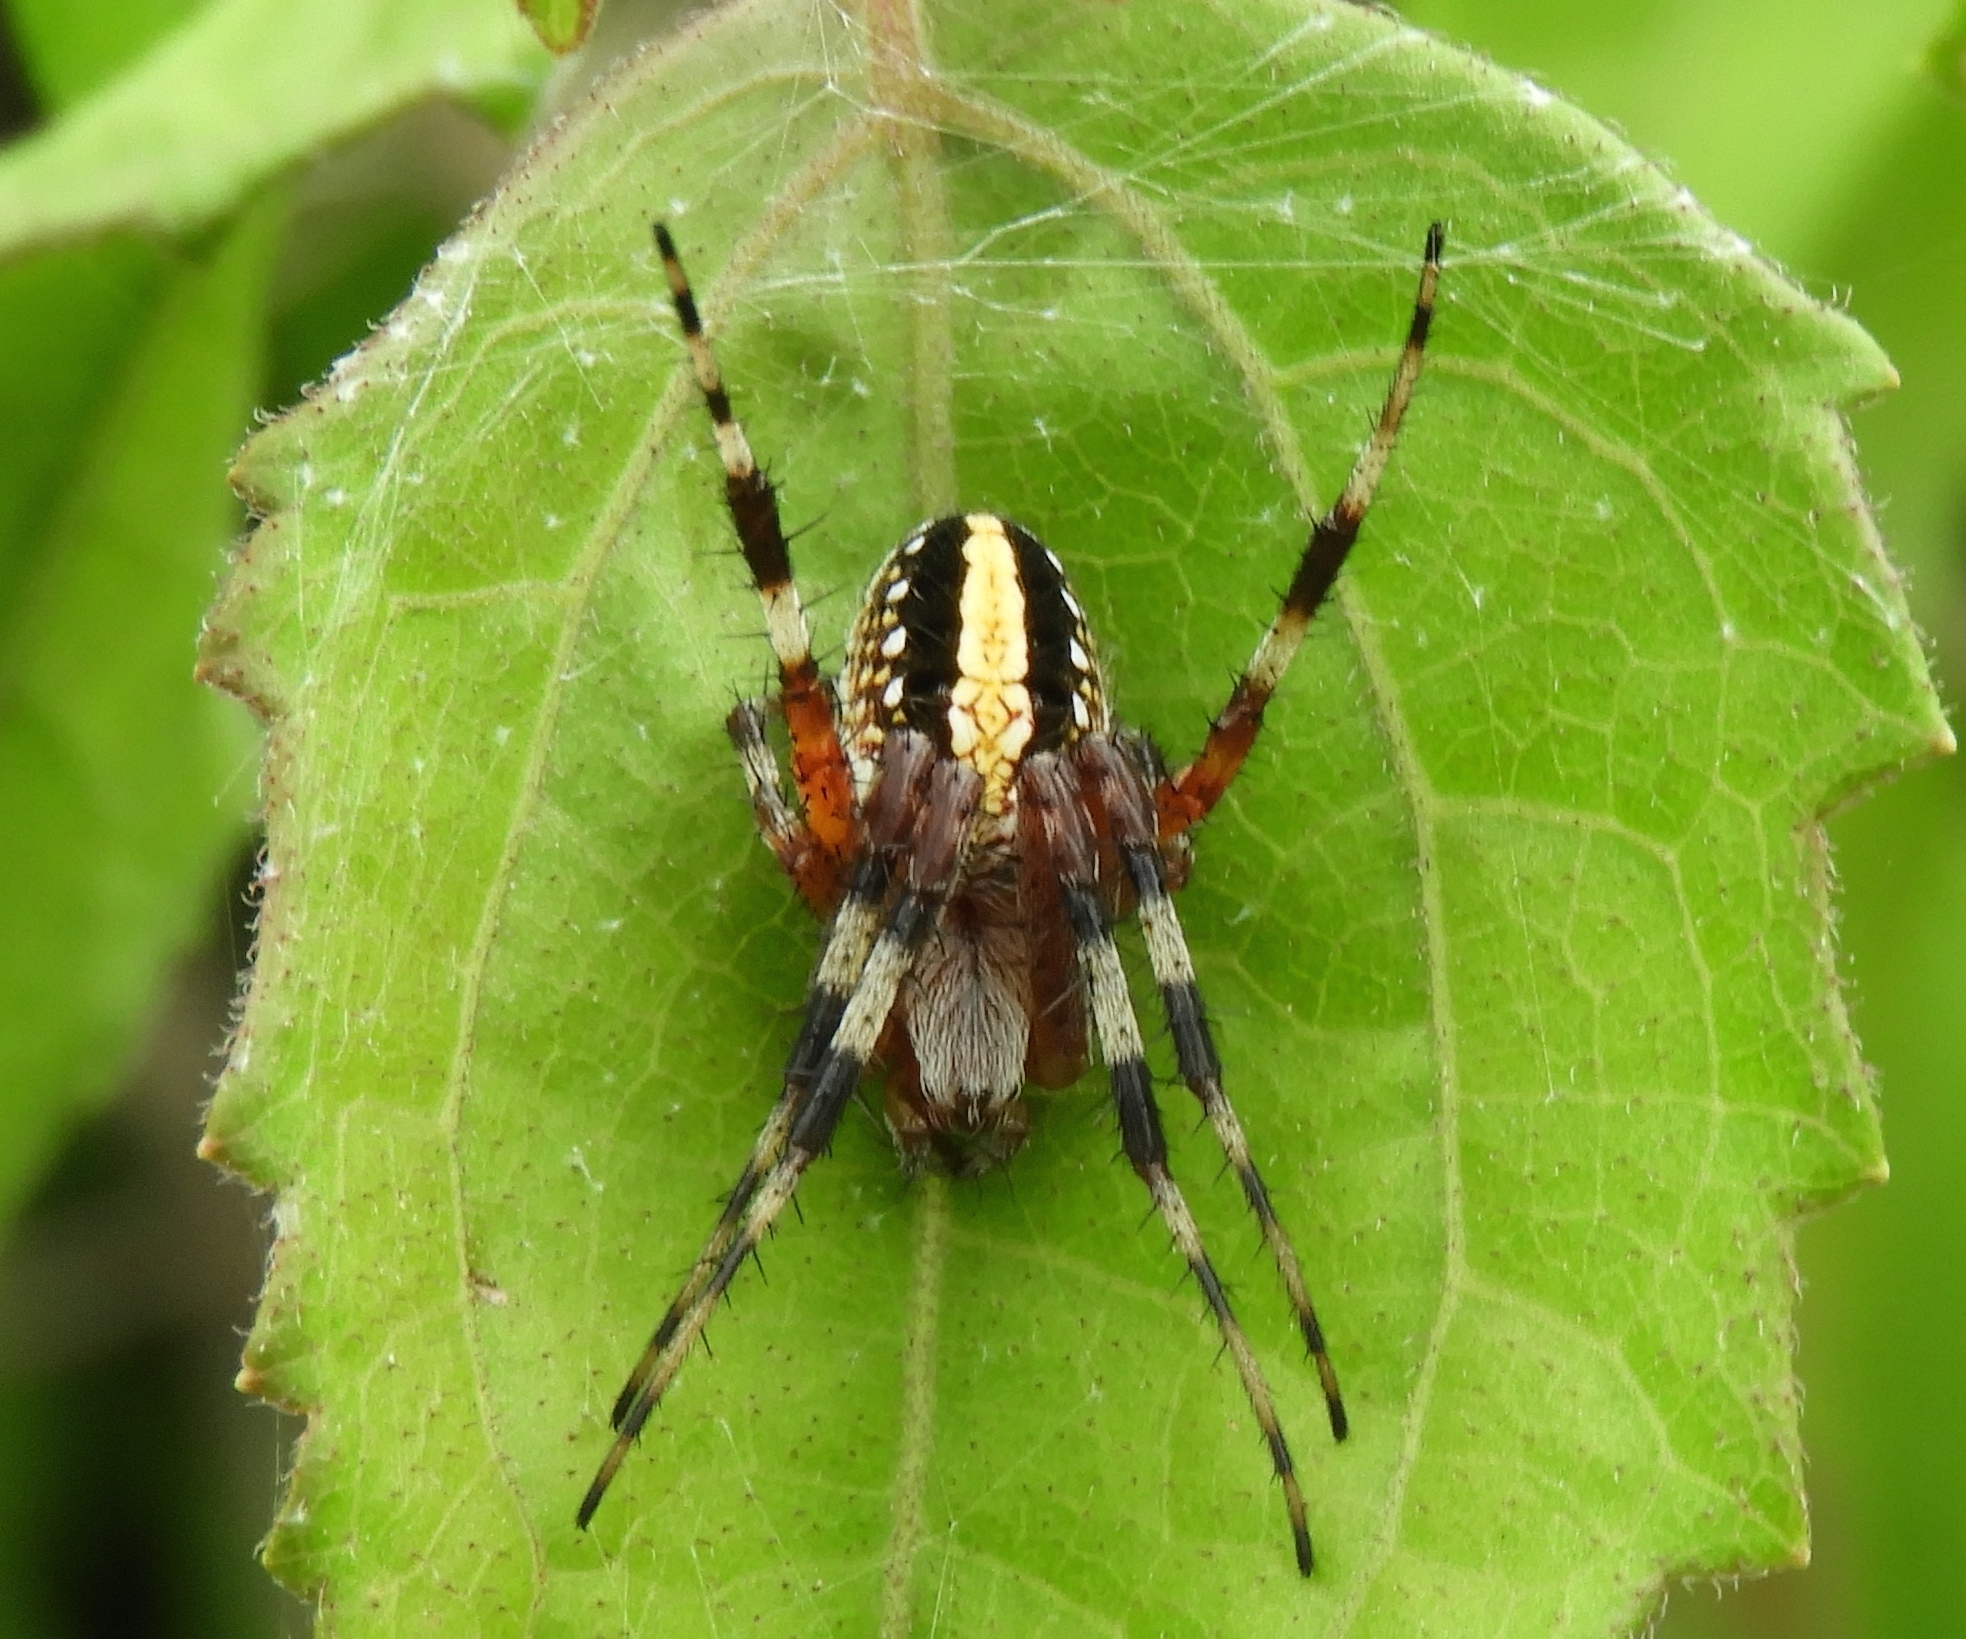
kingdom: Animalia
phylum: Arthropoda
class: Arachnida
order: Araneae
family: Araneidae
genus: Neoscona
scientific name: Neoscona oaxacensis
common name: Orb weavers
